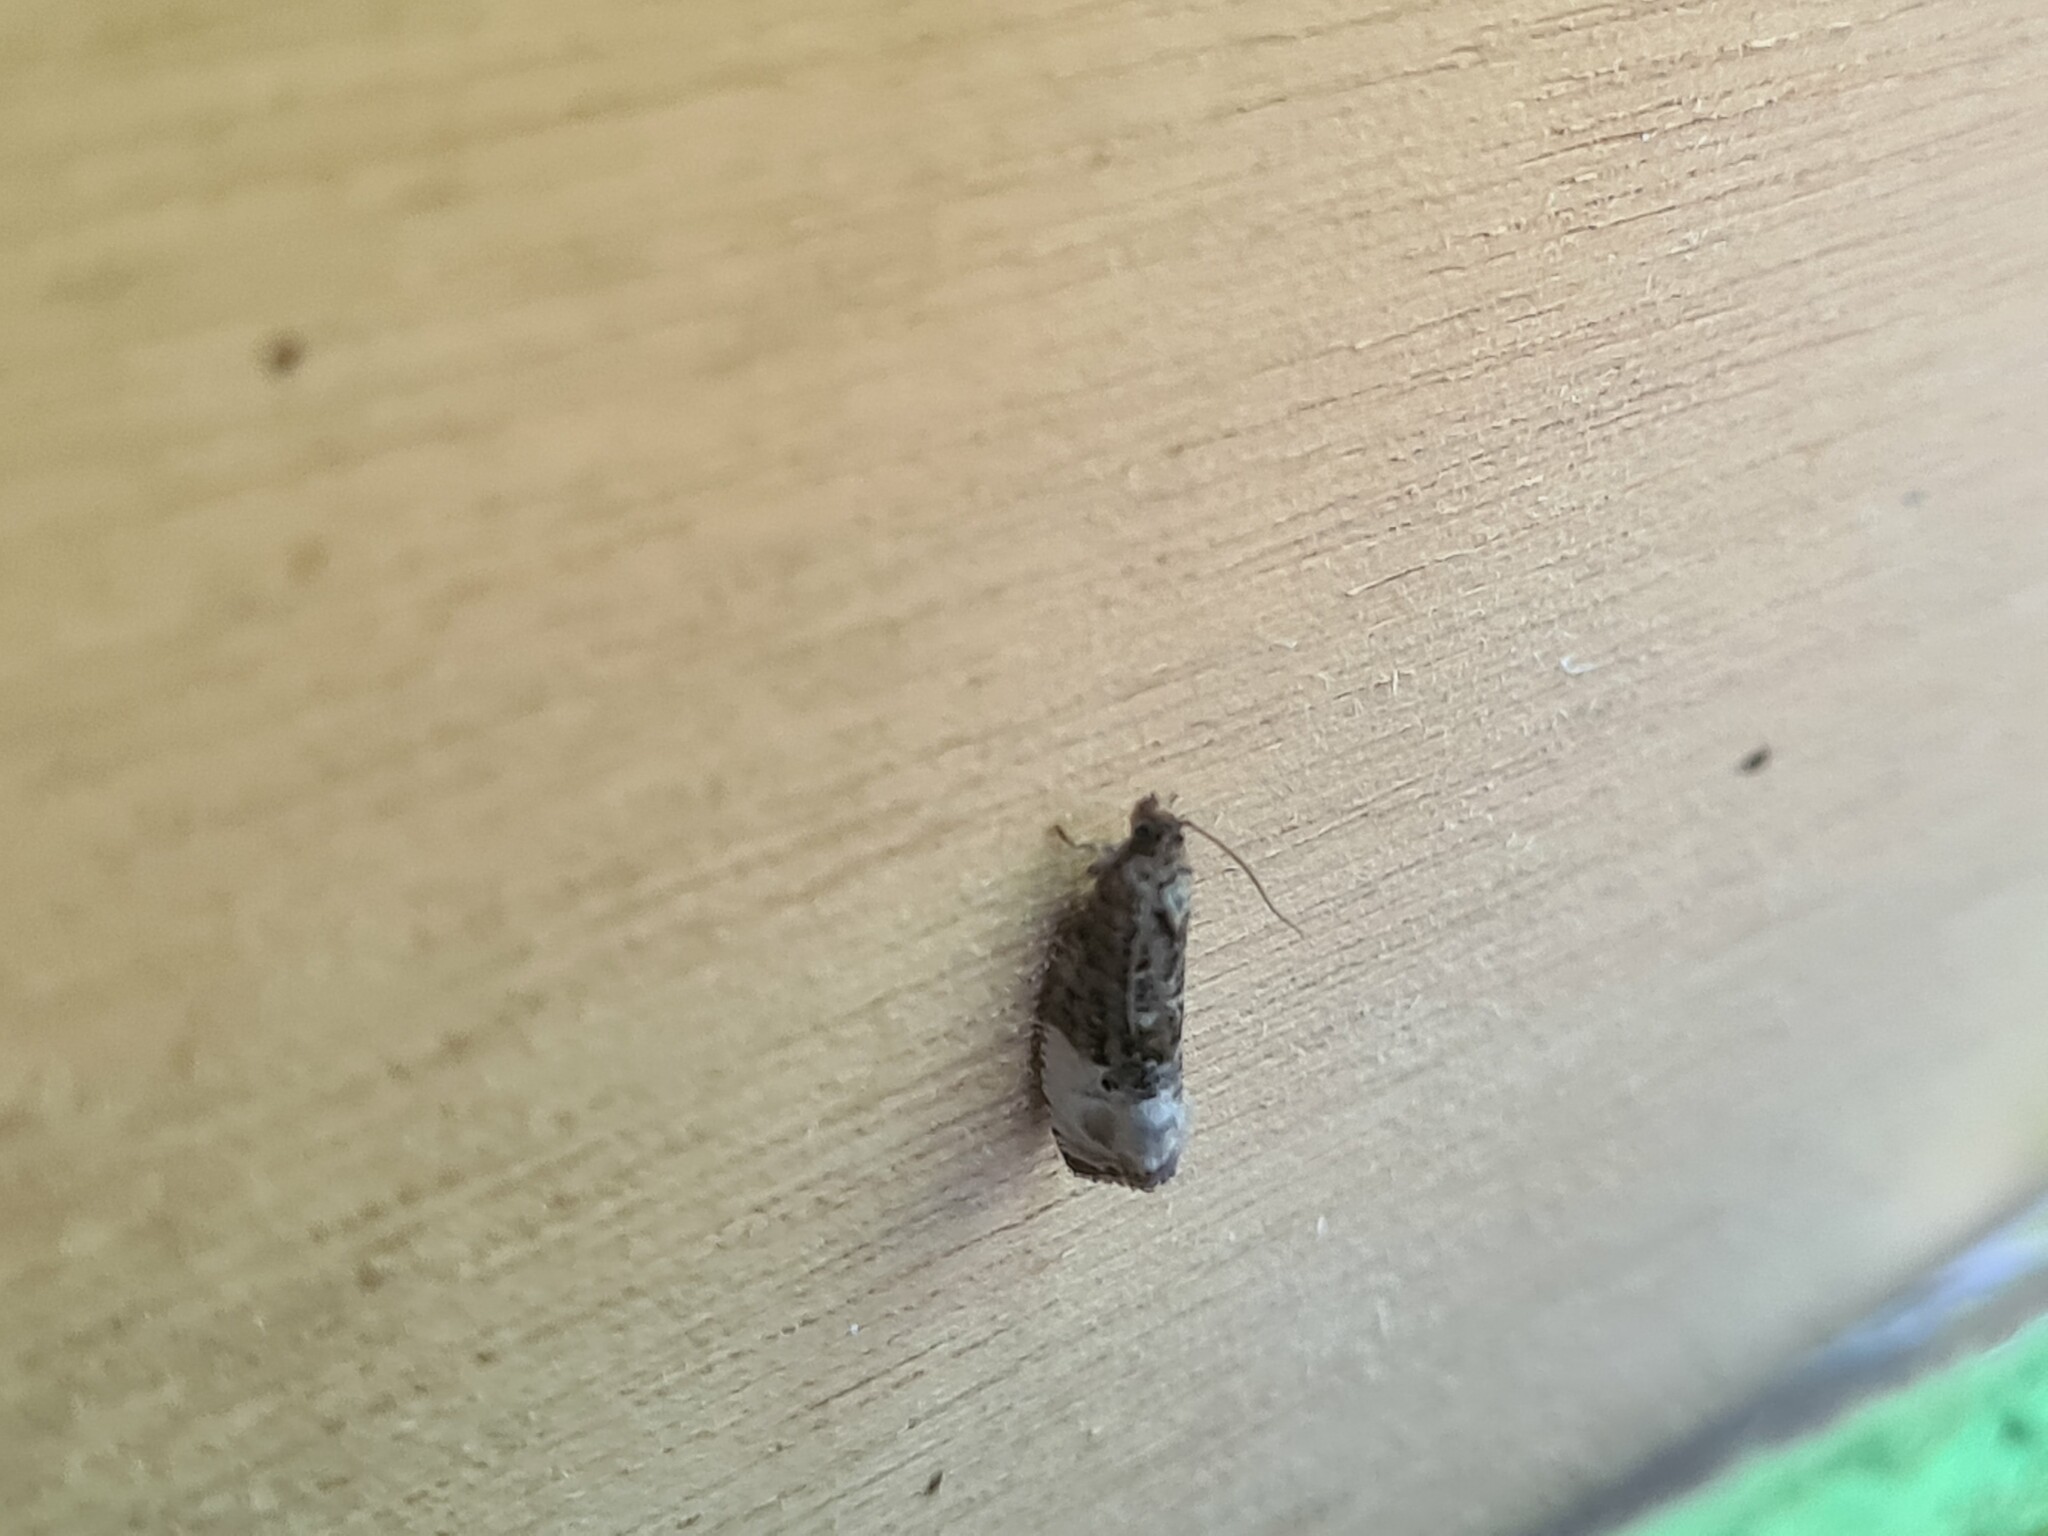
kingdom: Animalia
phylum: Arthropoda
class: Insecta
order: Lepidoptera
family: Tortricidae
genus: Hedya
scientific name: Hedya nubiferana
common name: Marbled orchard tortrix
